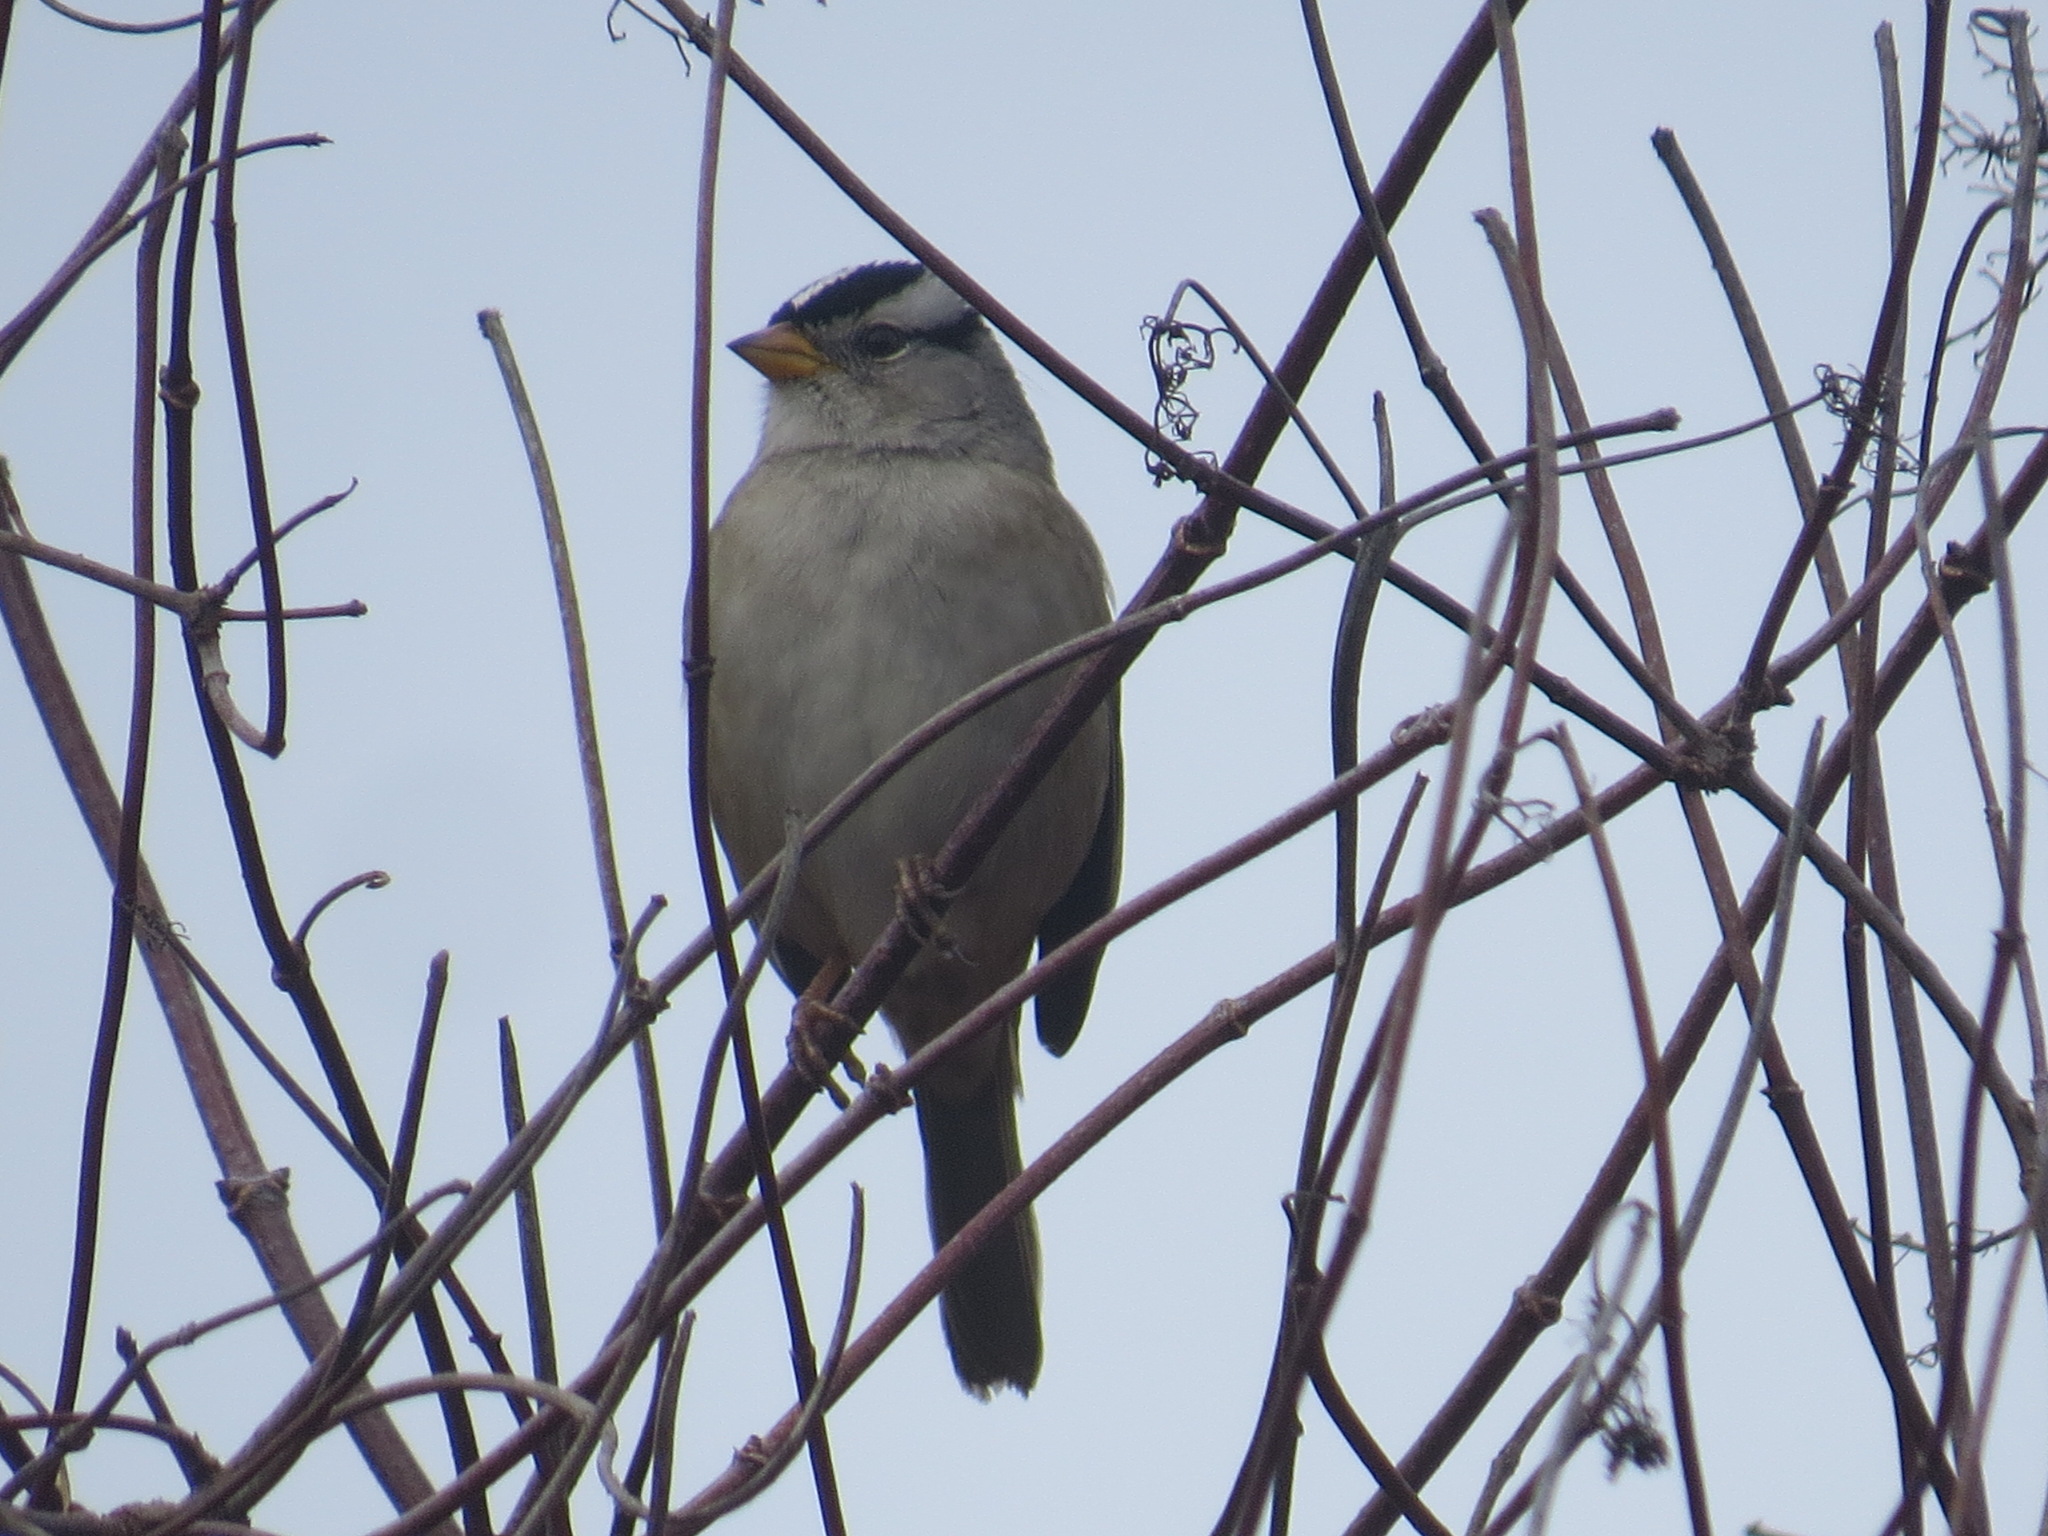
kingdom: Animalia
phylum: Chordata
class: Aves
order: Passeriformes
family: Passerellidae
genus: Zonotrichia
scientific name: Zonotrichia leucophrys
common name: White-crowned sparrow
